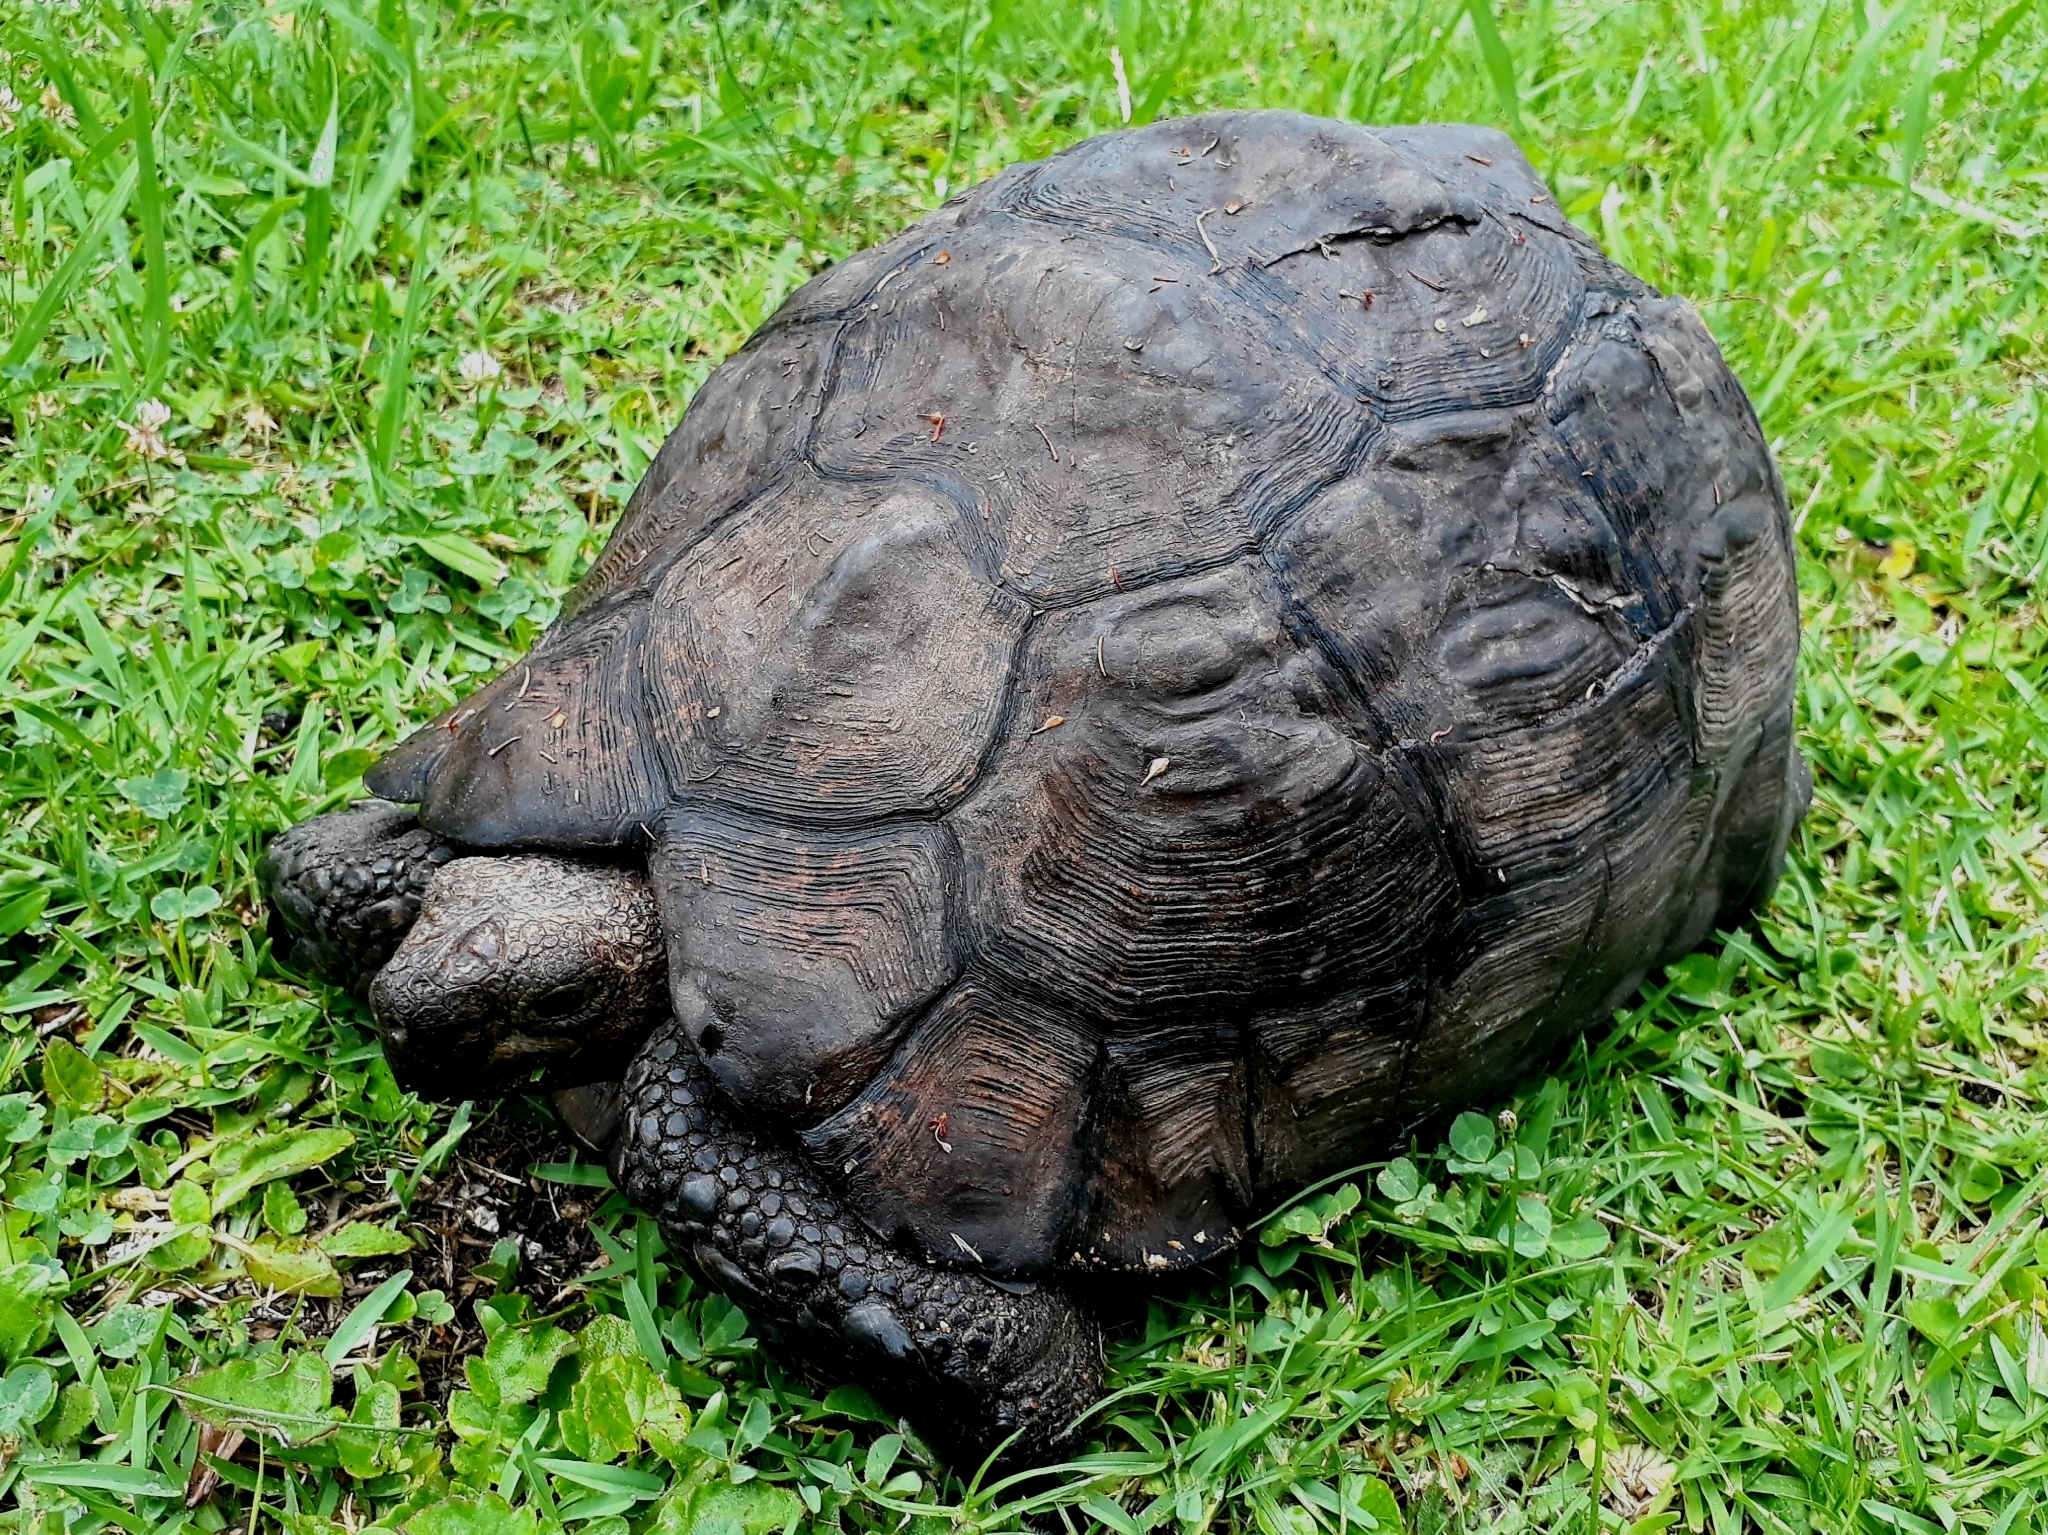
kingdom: Animalia
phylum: Chordata
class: Testudines
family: Testudinidae
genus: Stigmochelys
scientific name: Stigmochelys pardalis
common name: Leopard tortoise
